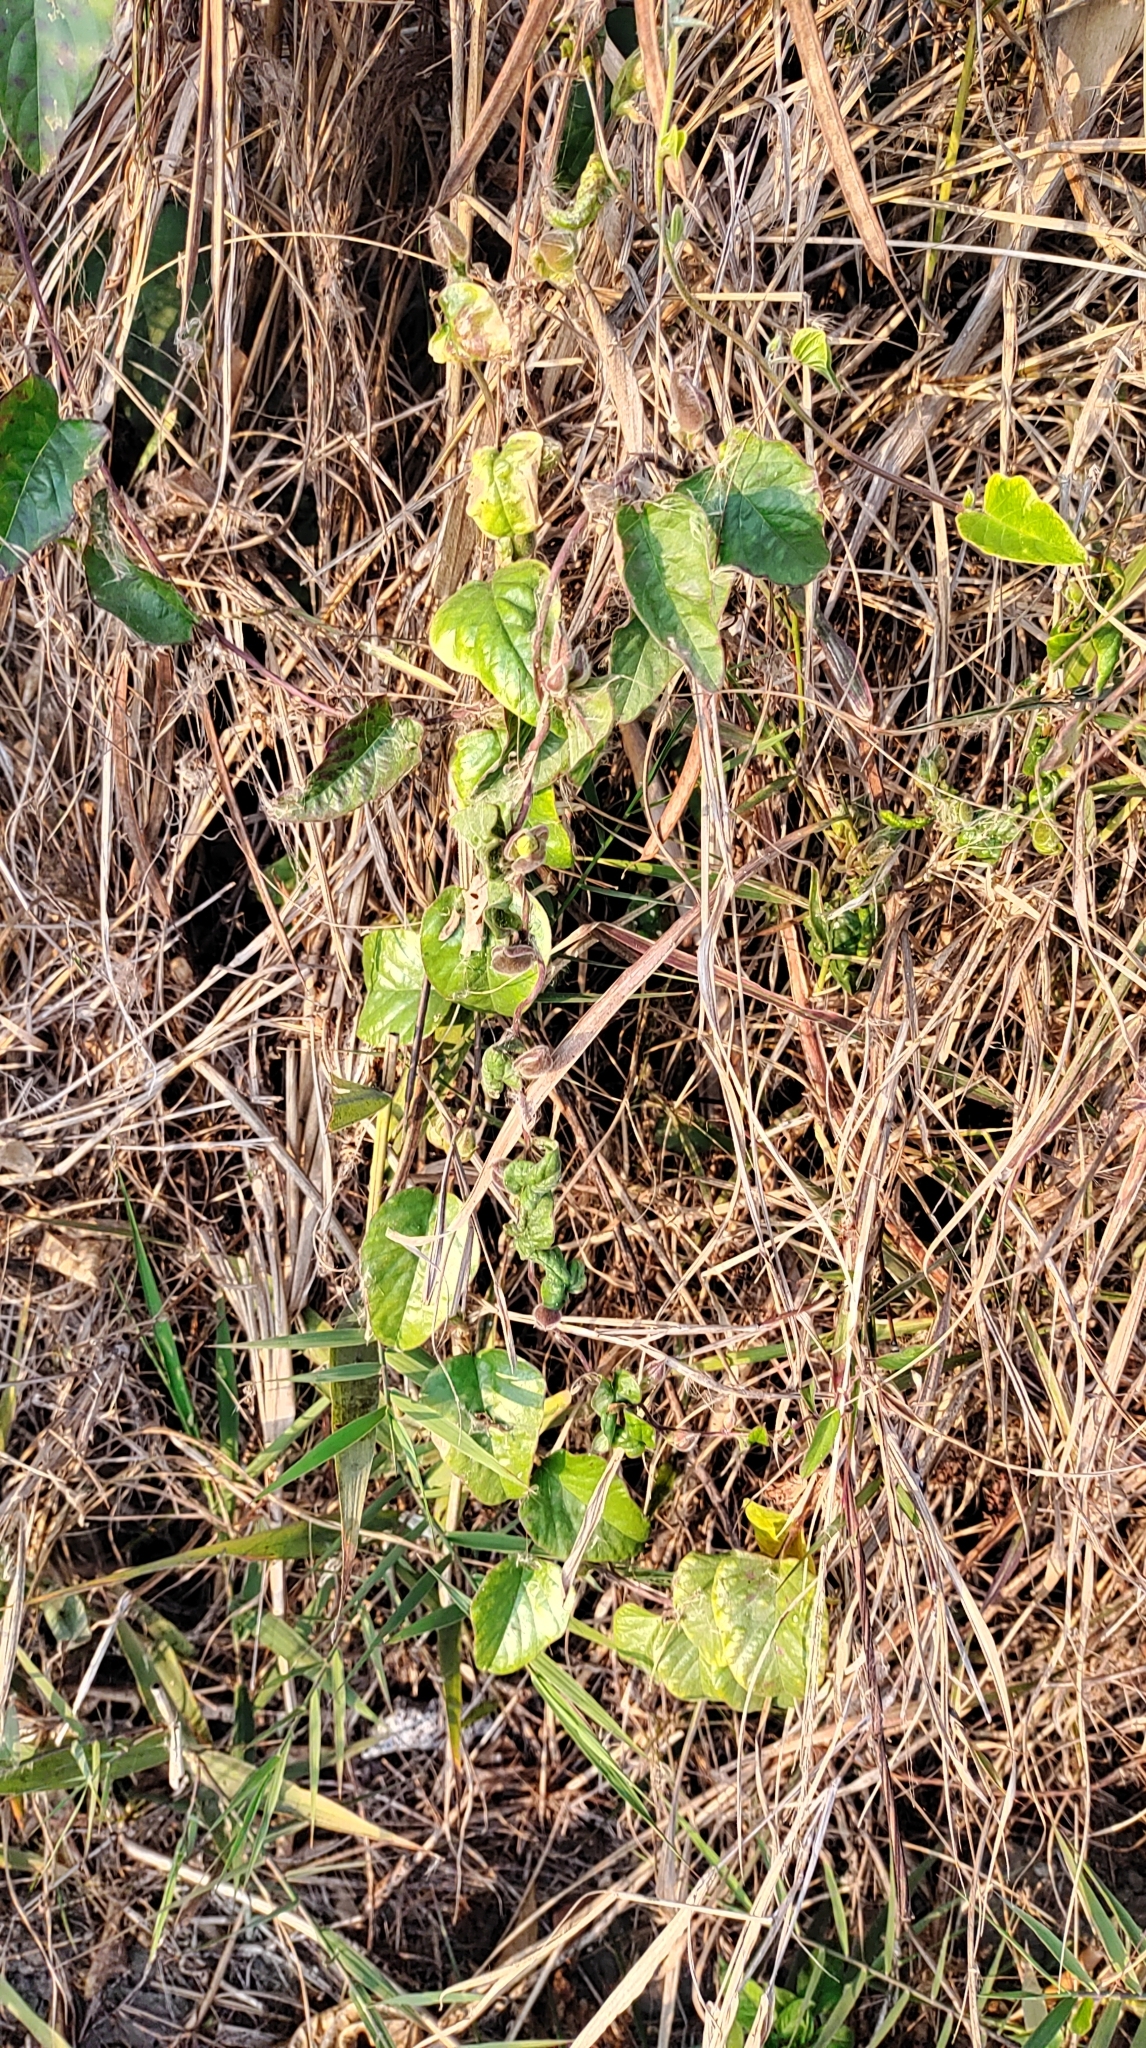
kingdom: Plantae
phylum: Tracheophyta
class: Magnoliopsida
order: Malpighiales
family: Passifloraceae
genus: Passiflora
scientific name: Passiflora vesicaria
